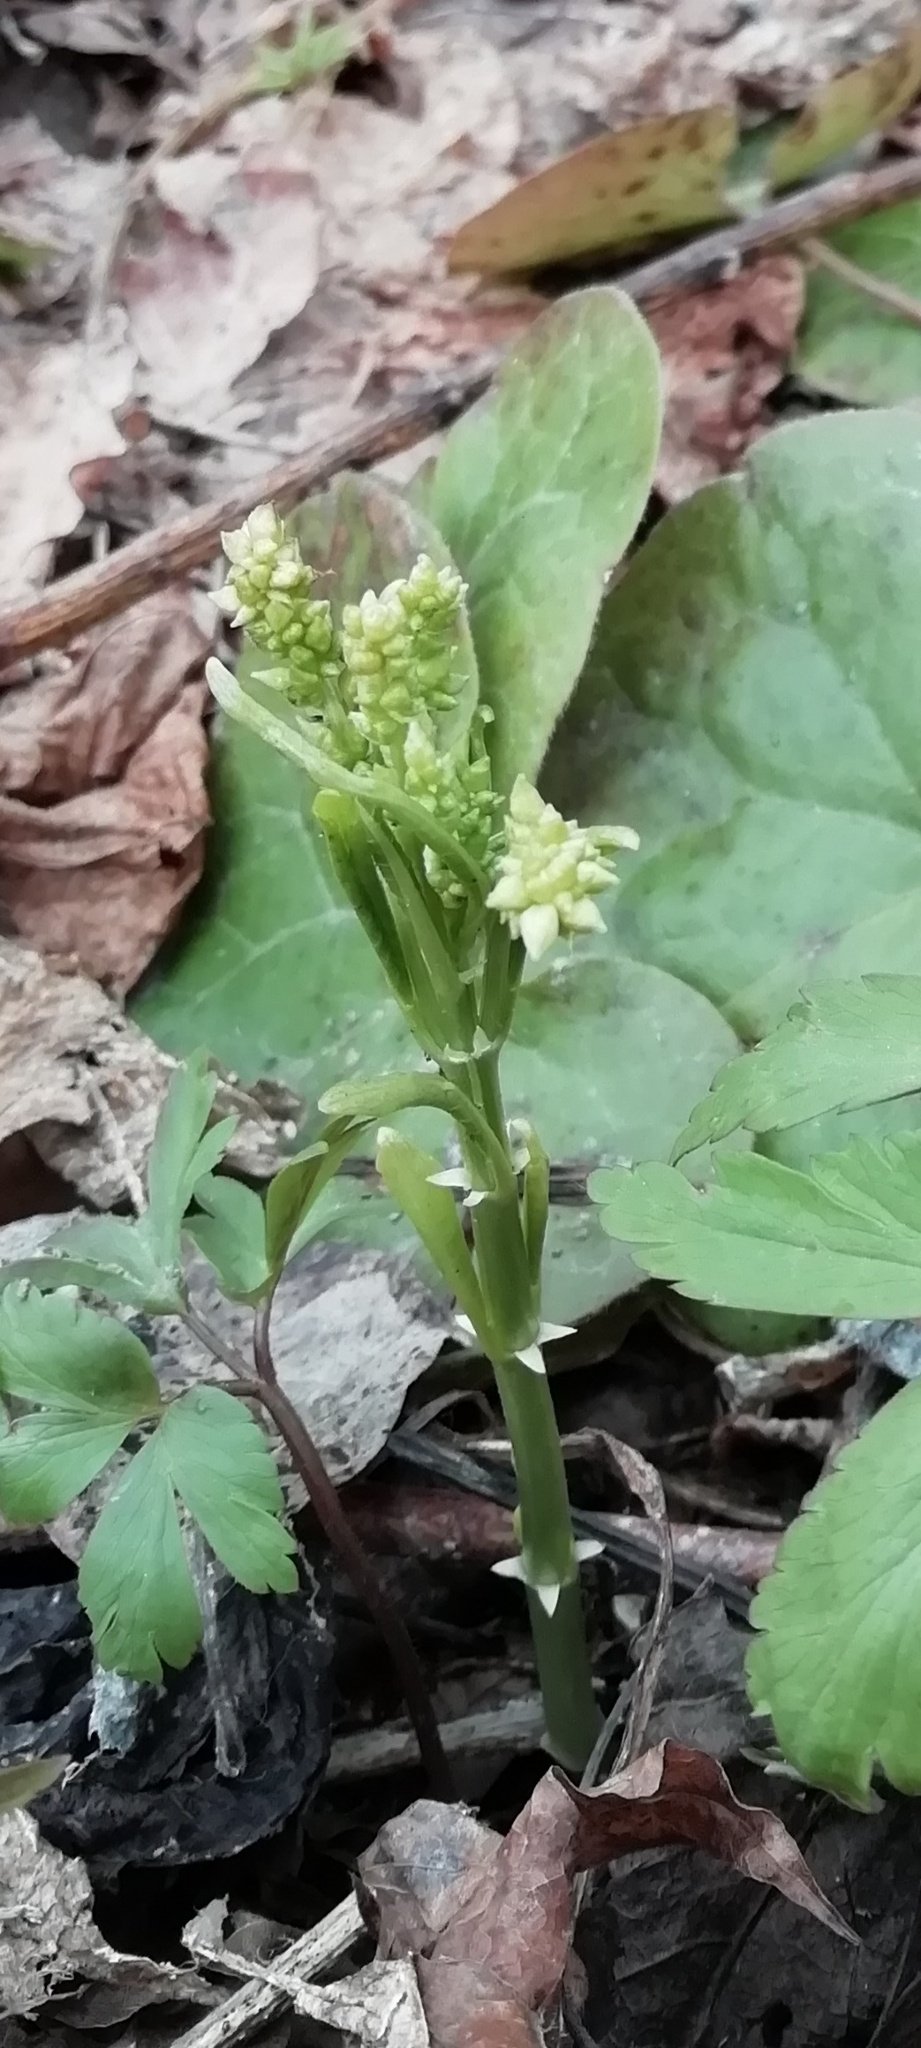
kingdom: Plantae
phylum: Tracheophyta
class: Magnoliopsida
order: Malpighiales
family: Euphorbiaceae
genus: Mercurialis
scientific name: Mercurialis perennis
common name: Dog mercury
